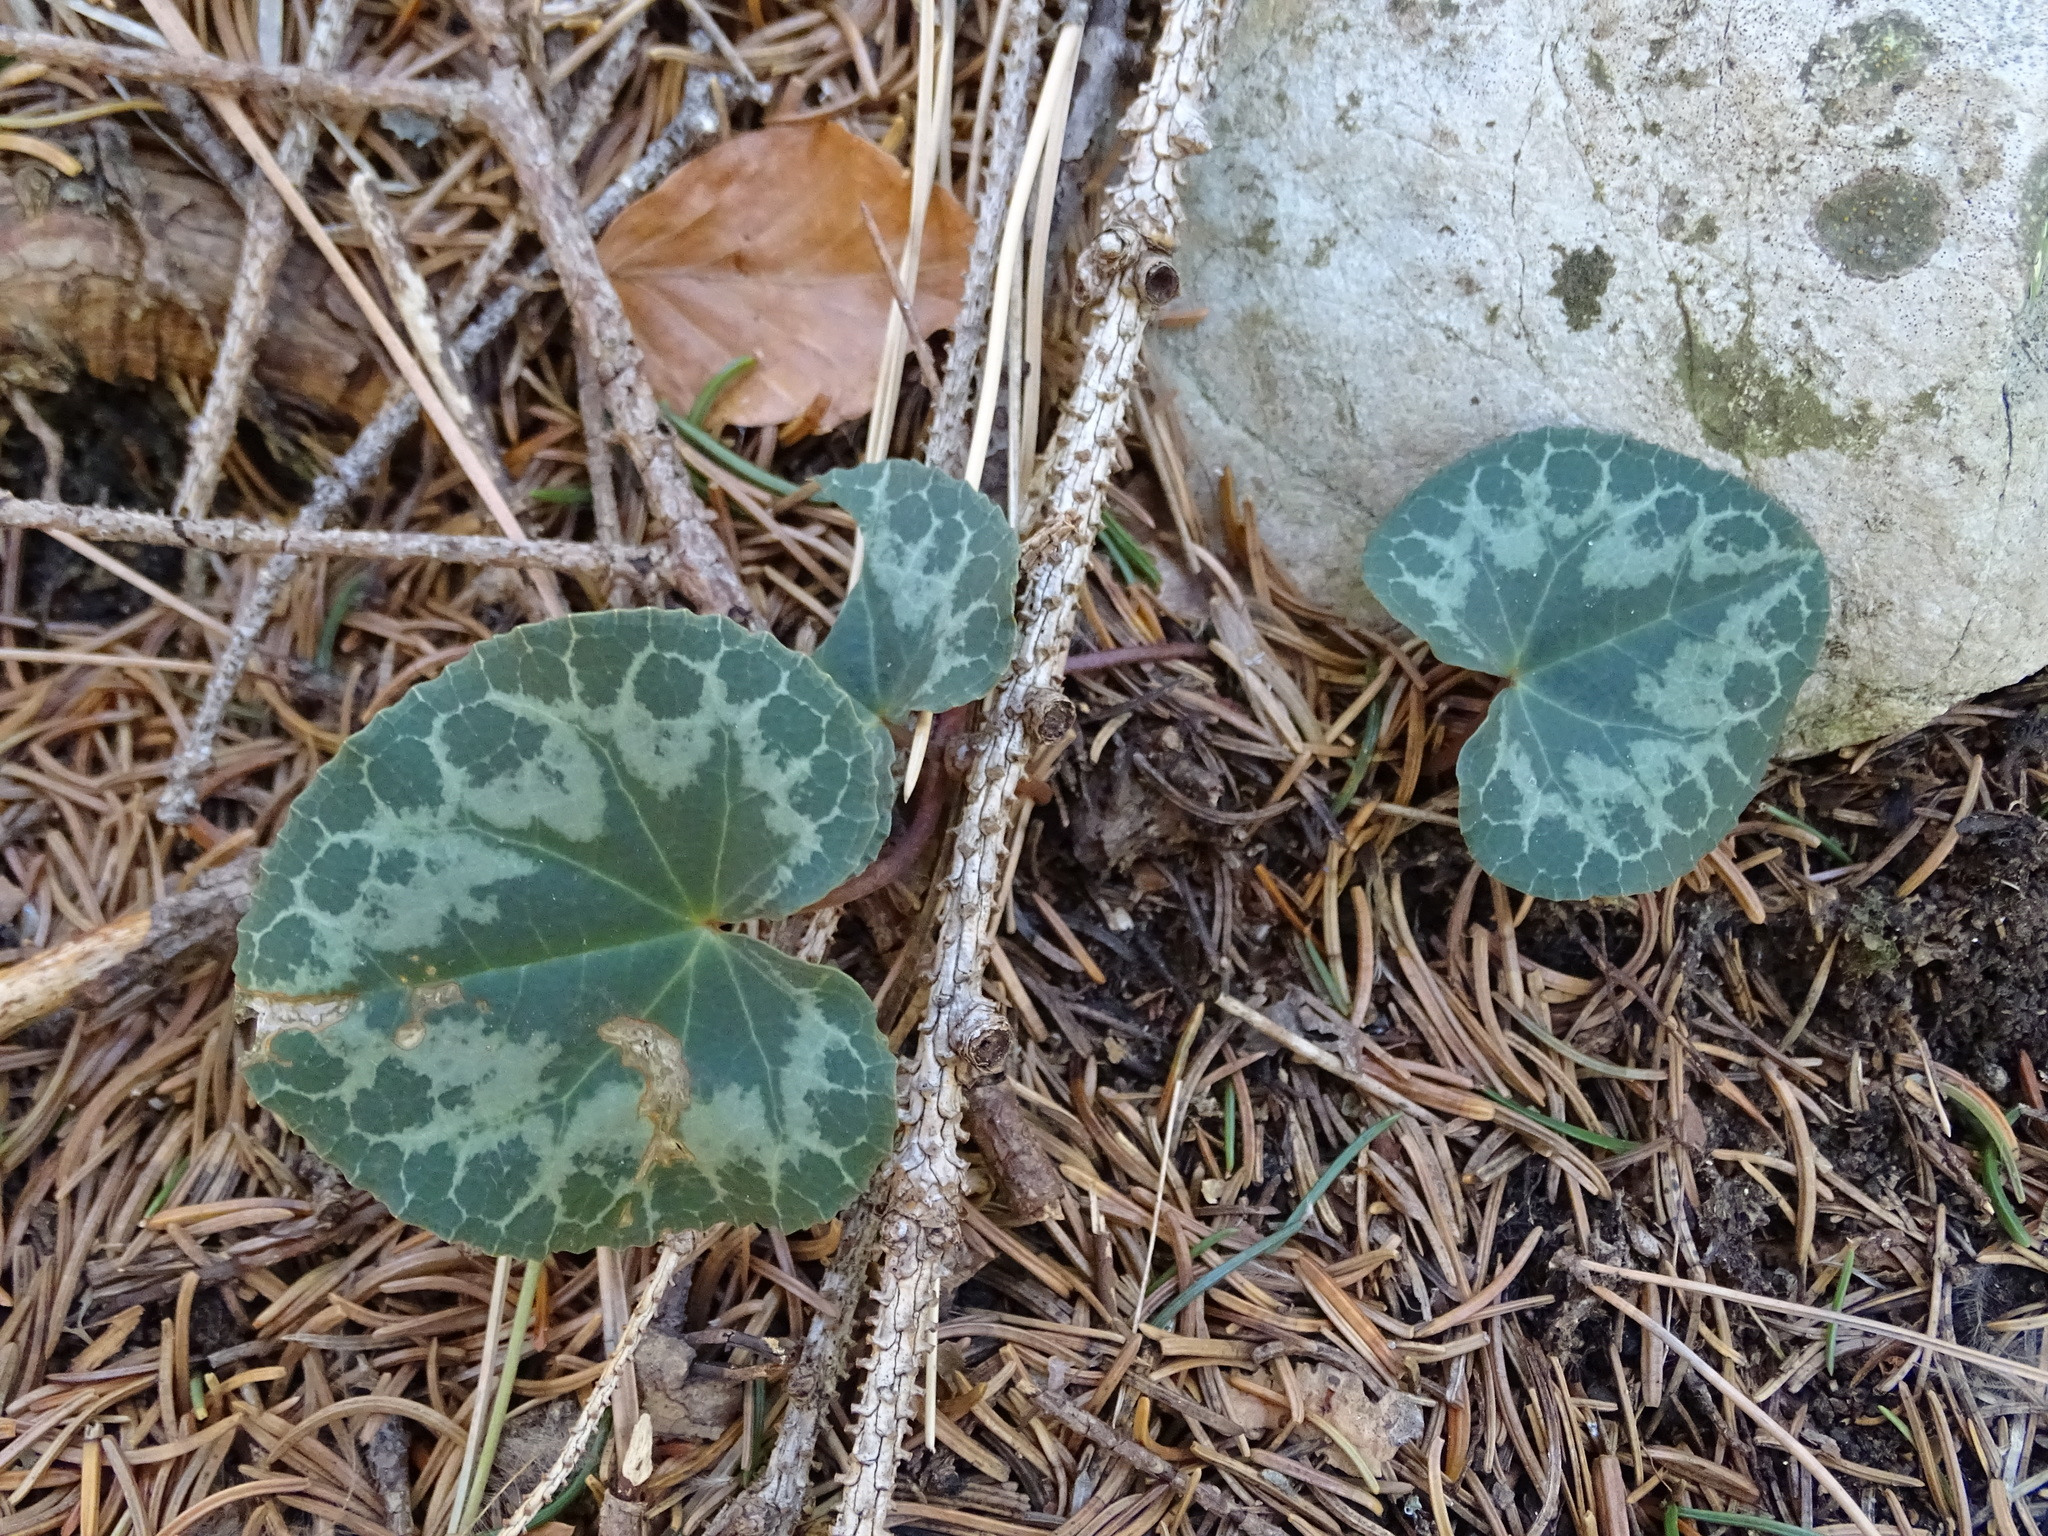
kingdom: Plantae
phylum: Tracheophyta
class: Magnoliopsida
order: Ericales
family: Primulaceae
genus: Cyclamen
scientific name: Cyclamen purpurascens
